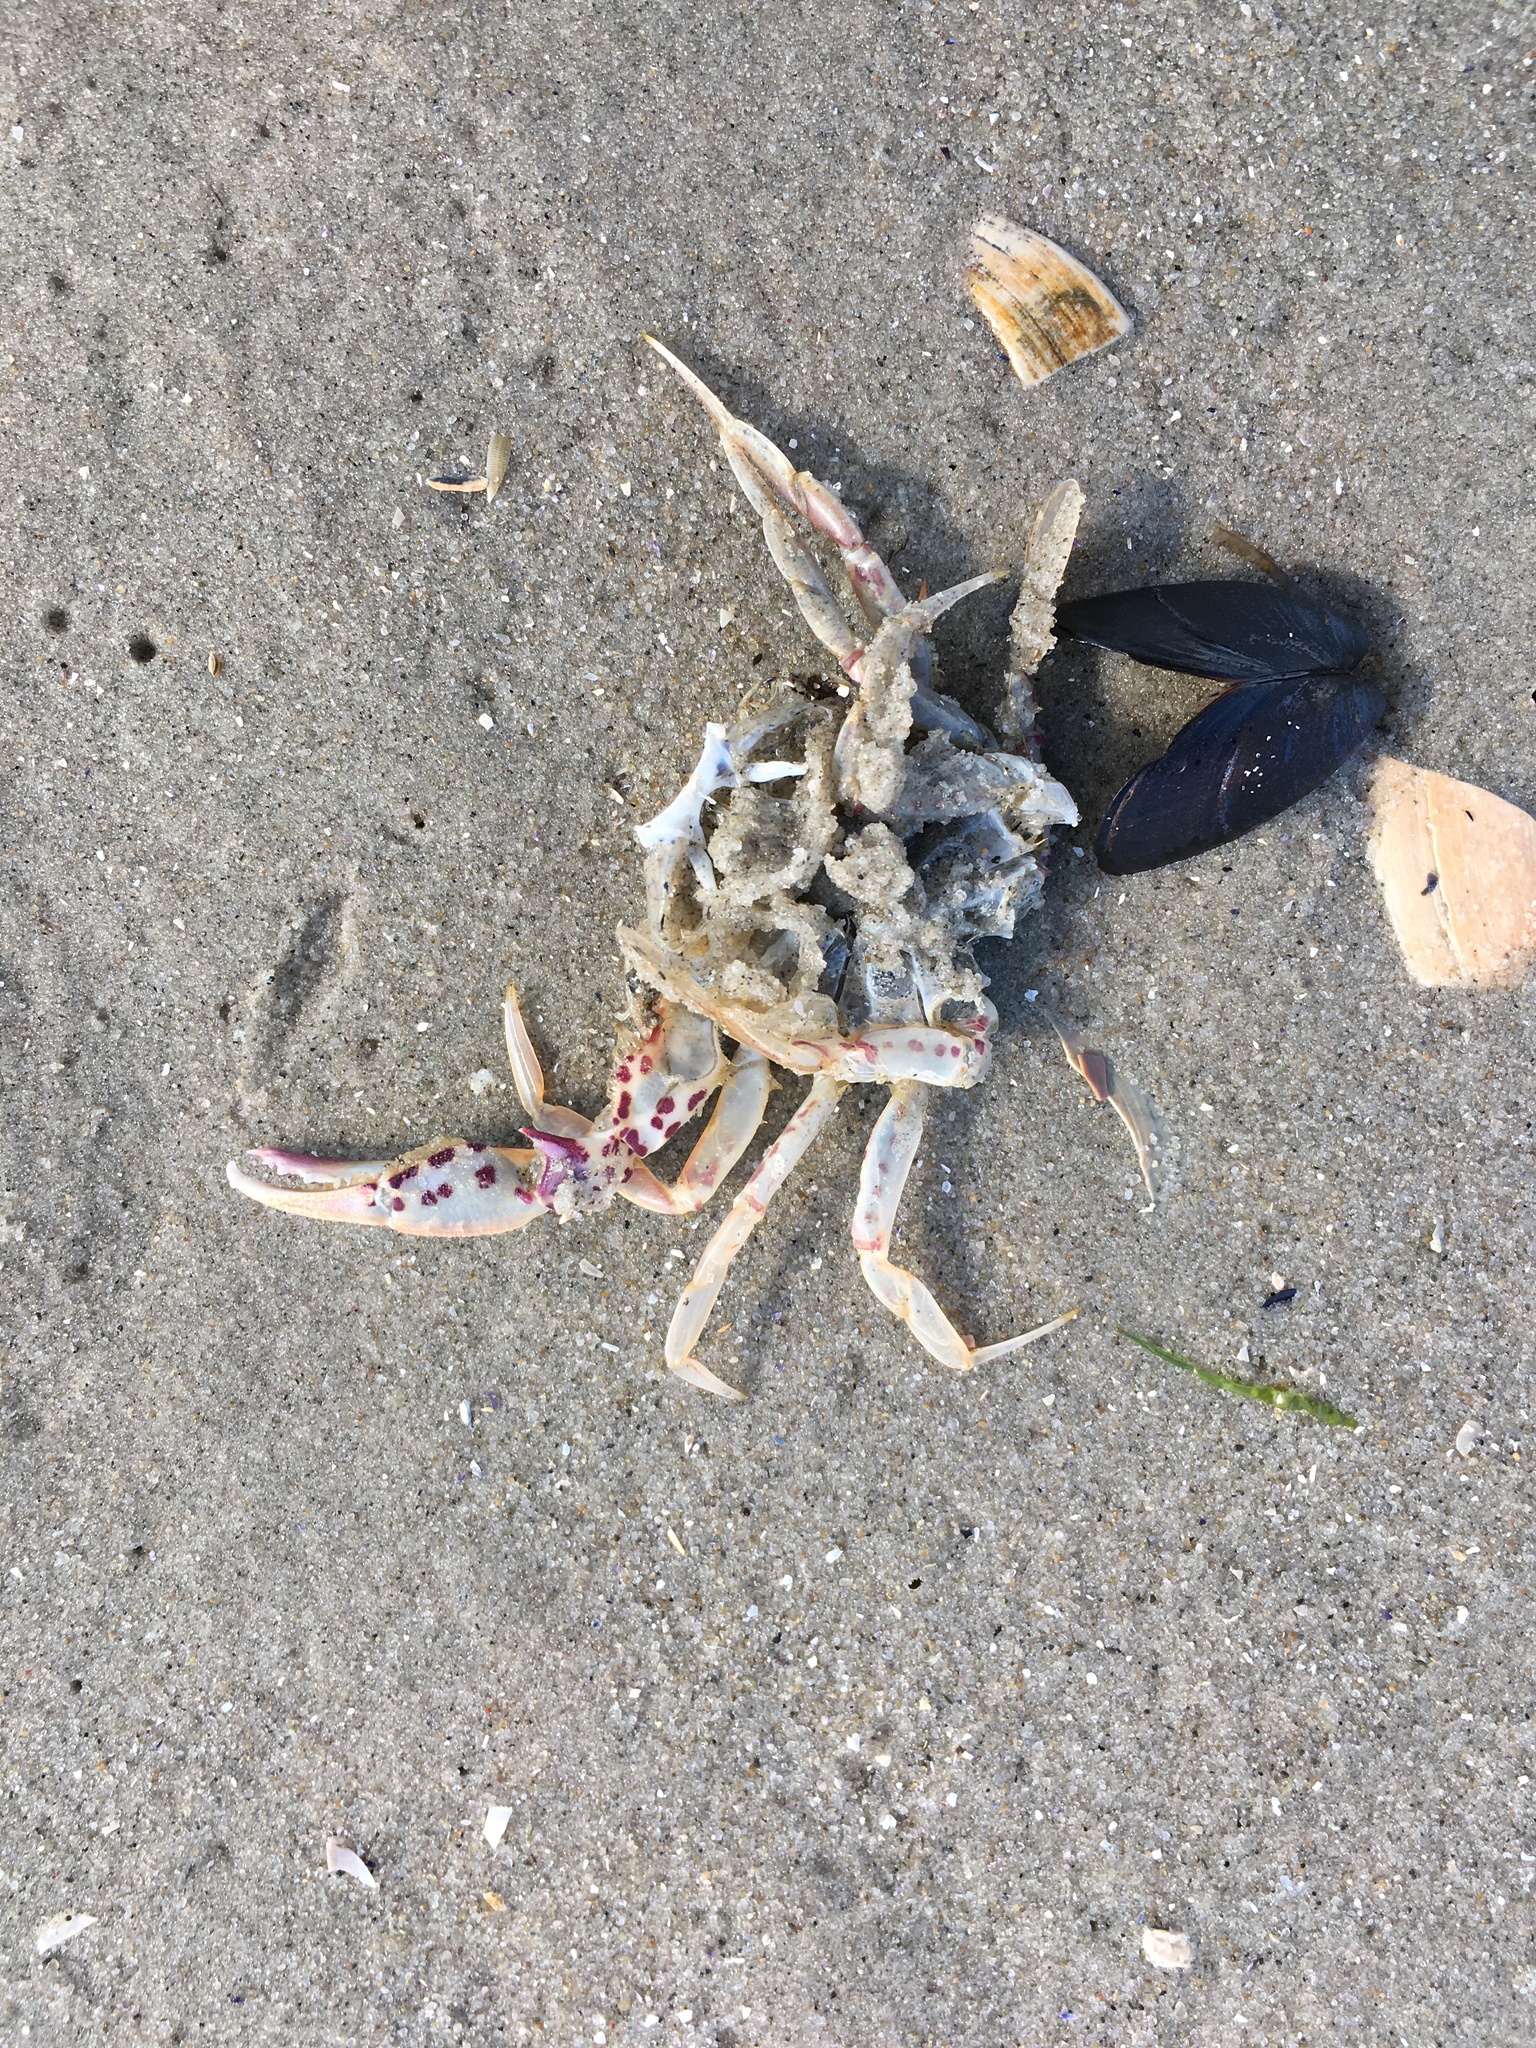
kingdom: Animalia
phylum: Arthropoda
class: Malacostraca
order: Decapoda
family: Ovalipidae
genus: Ovalipes
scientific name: Ovalipes ocellatus
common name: Lady crab
